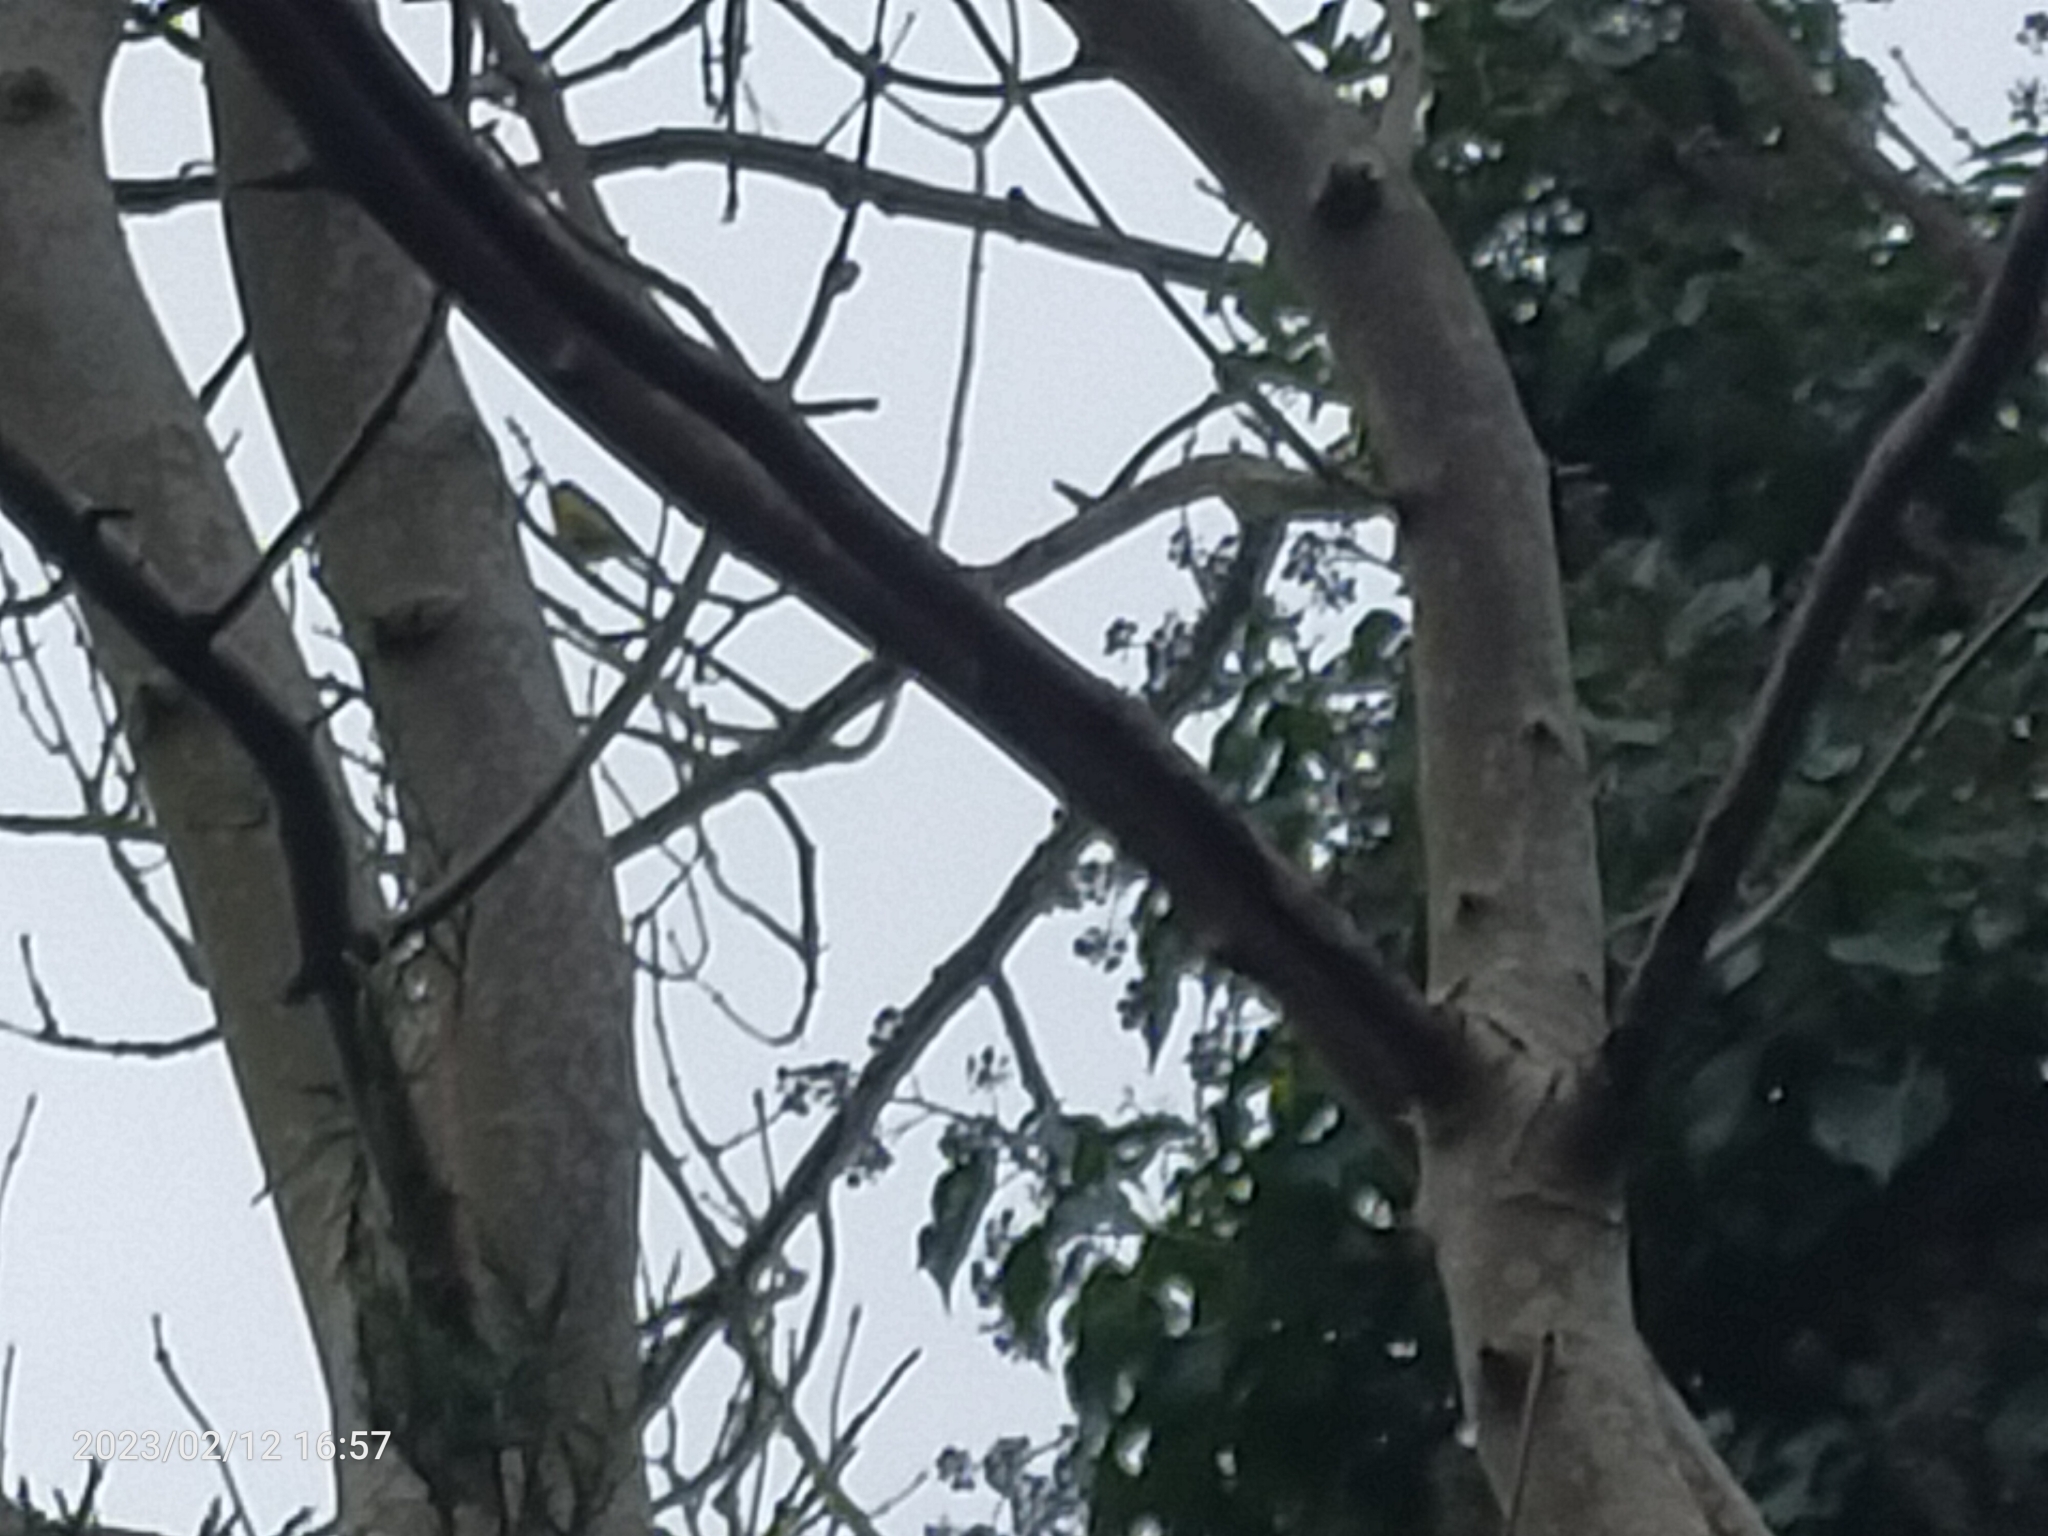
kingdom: Animalia
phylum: Chordata
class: Aves
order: Passeriformes
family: Paridae
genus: Cyanistes
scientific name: Cyanistes caeruleus
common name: Eurasian blue tit
